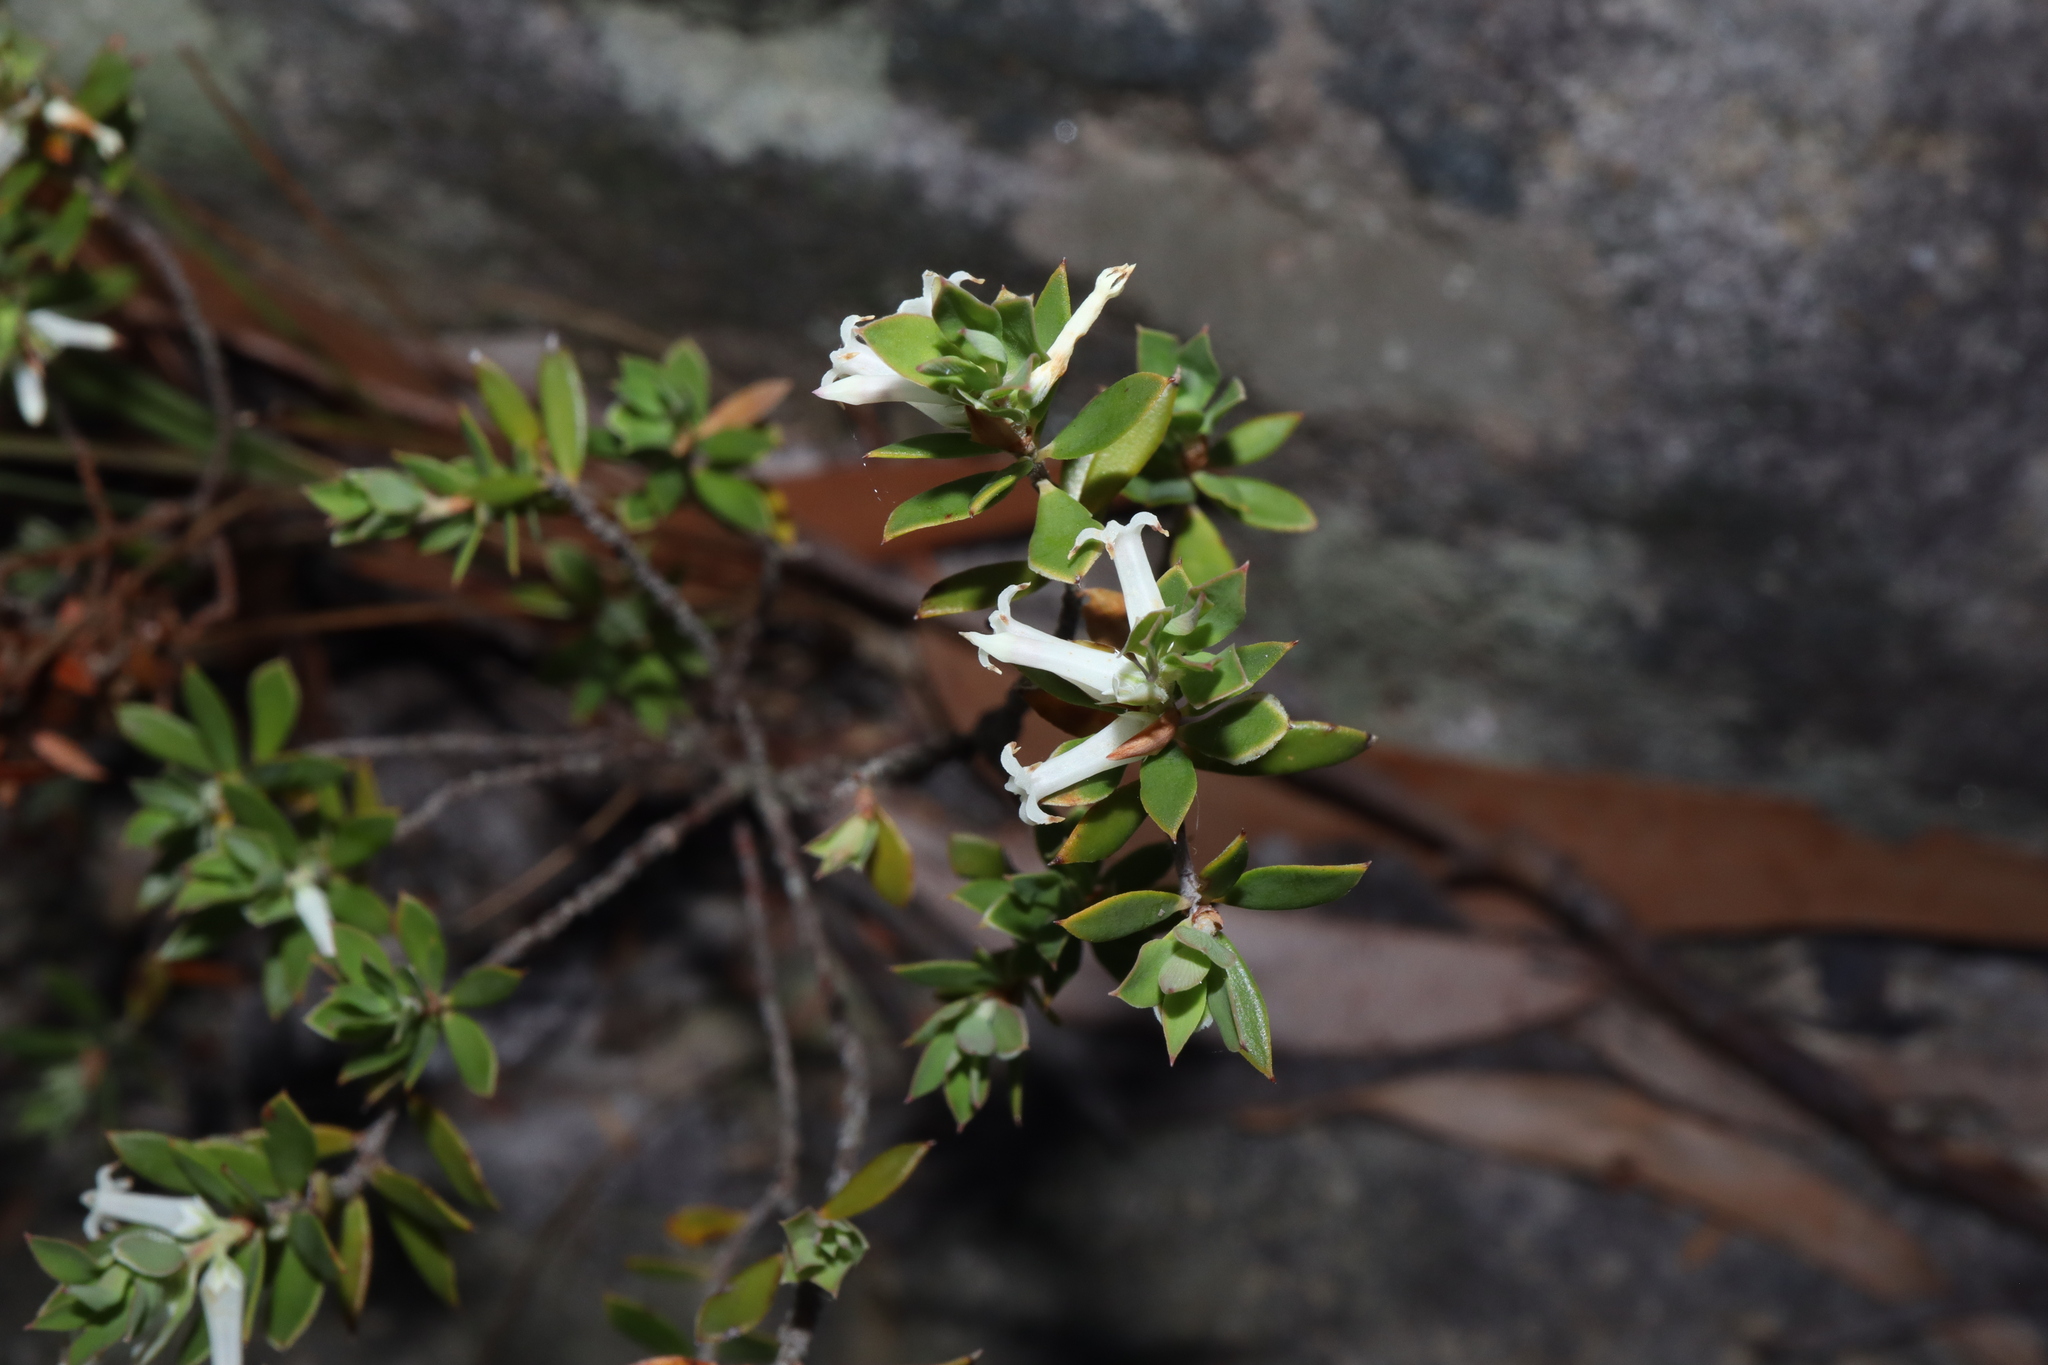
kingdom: Plantae
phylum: Tracheophyta
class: Magnoliopsida
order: Ericales
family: Ericaceae
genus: Brachyloma
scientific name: Brachyloma daphnoides
